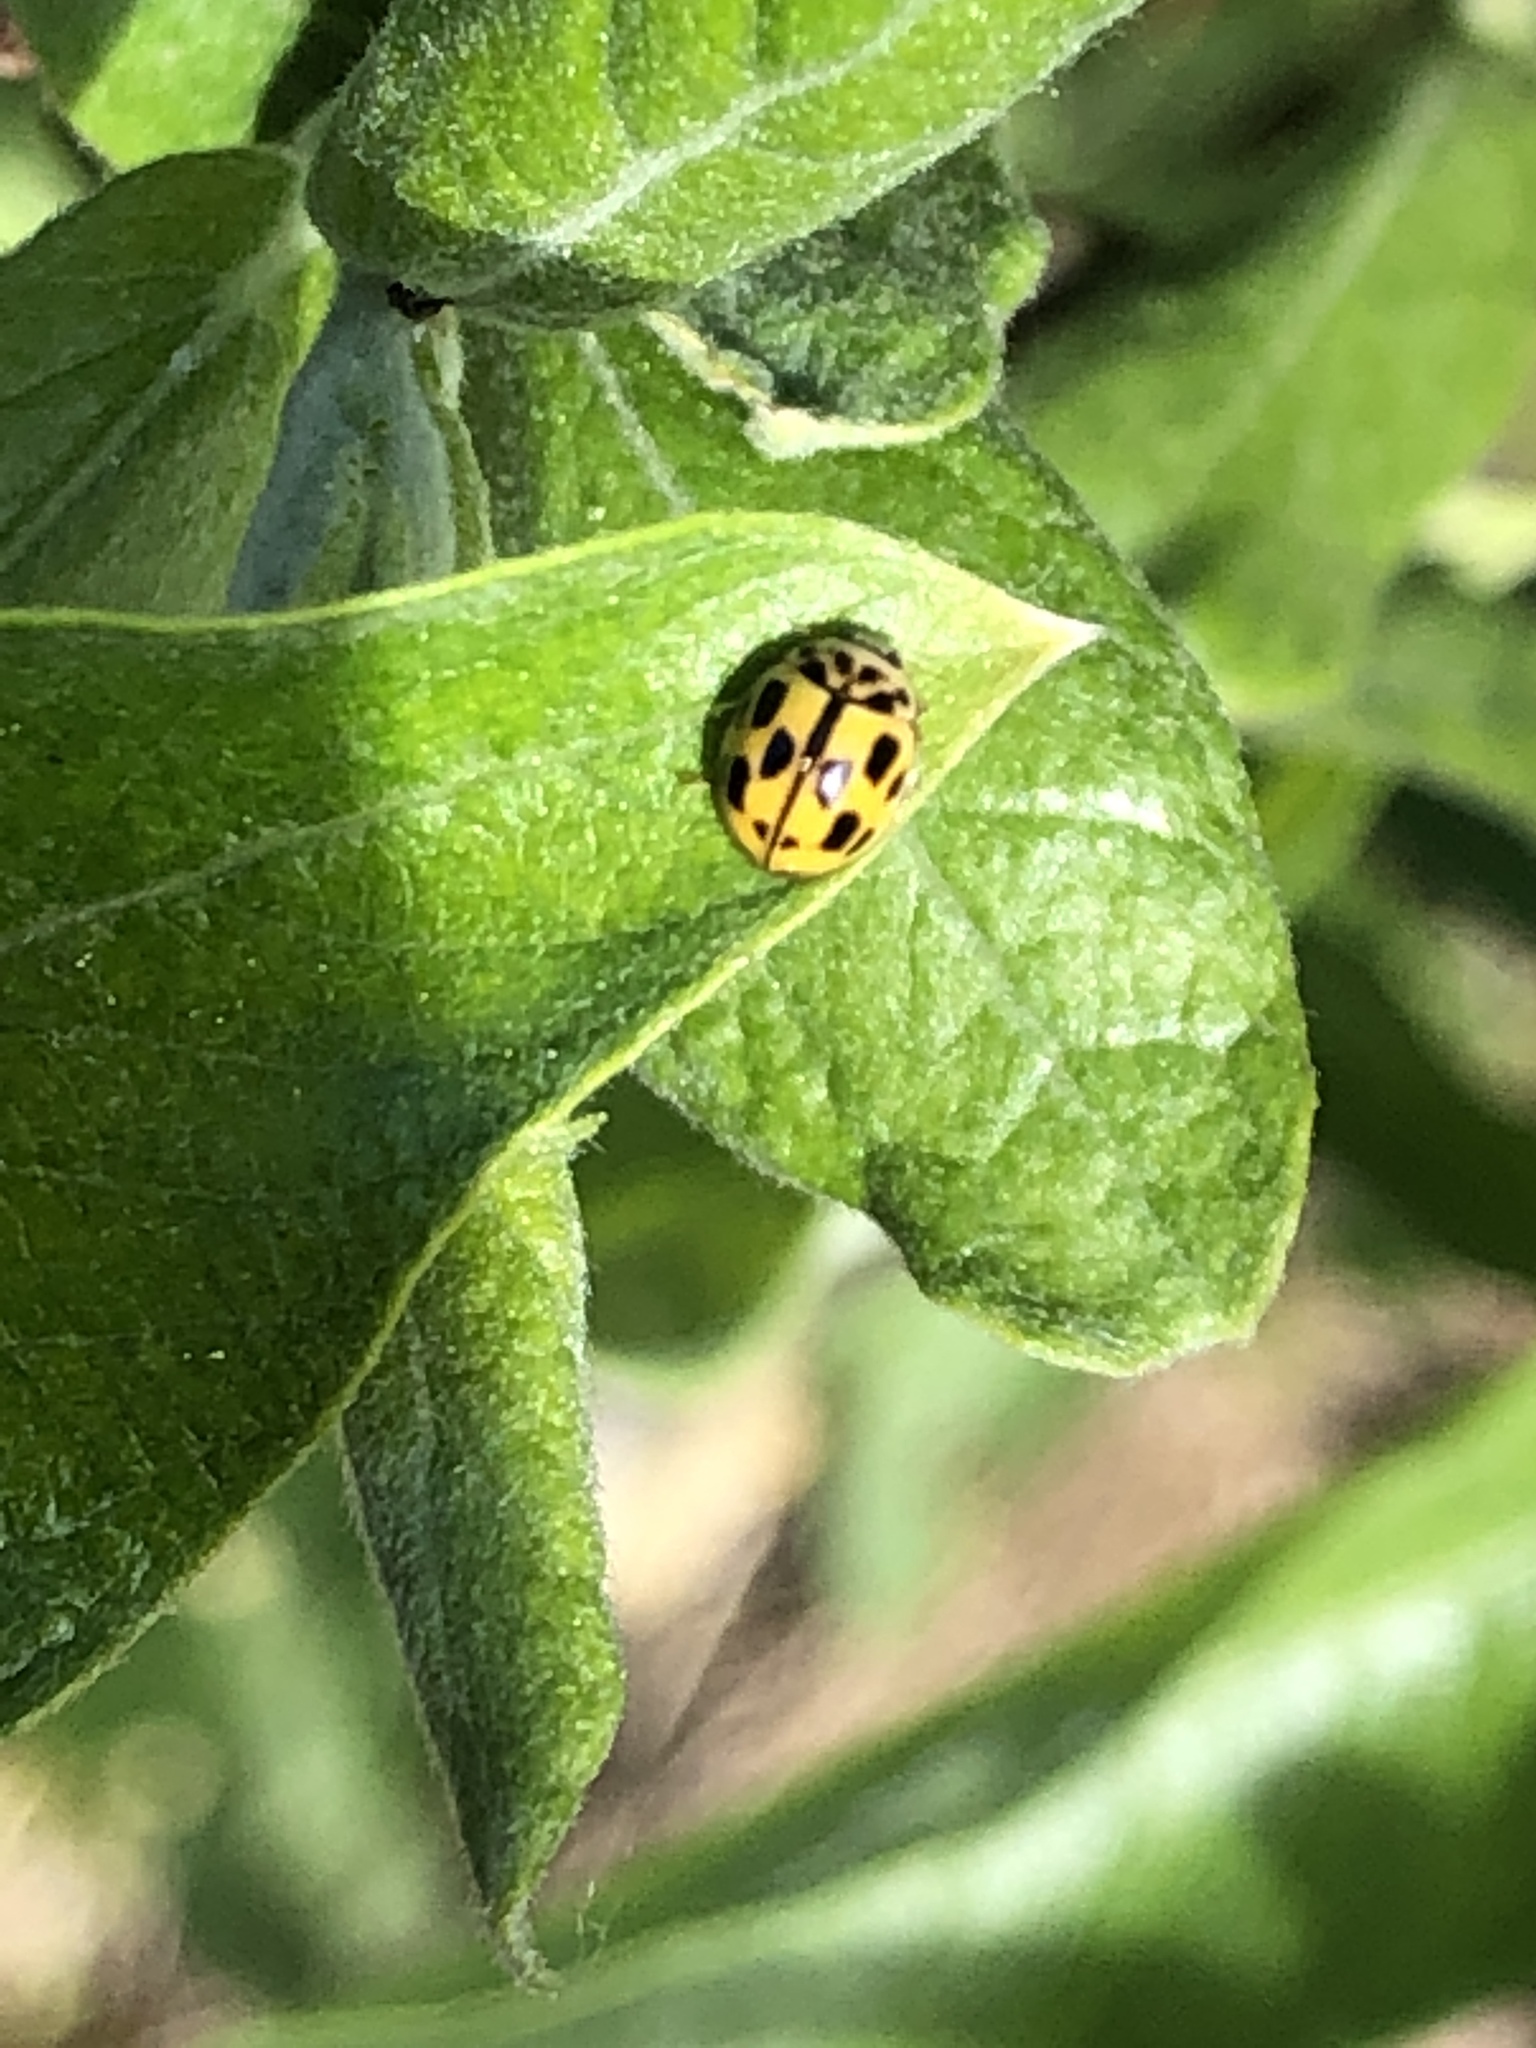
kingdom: Animalia
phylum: Arthropoda
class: Insecta
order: Coleoptera
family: Coccinellidae
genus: Propylaea
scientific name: Propylaea quatuordecimpunctata
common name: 14-spotted ladybird beetle
